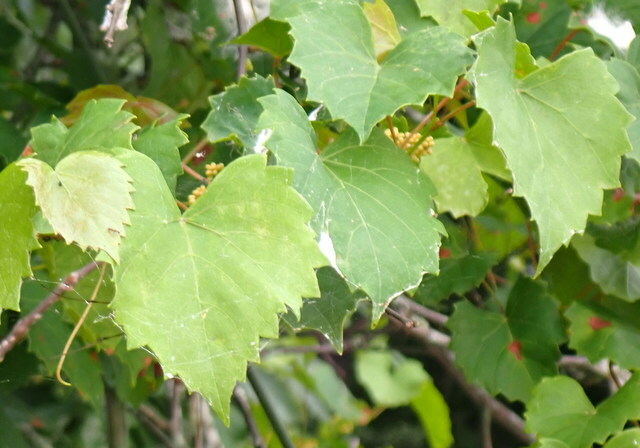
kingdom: Plantae
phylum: Tracheophyta
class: Magnoliopsida
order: Vitales
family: Vitaceae
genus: Vitis
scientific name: Vitis rotundifolia
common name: Muscadine grape
